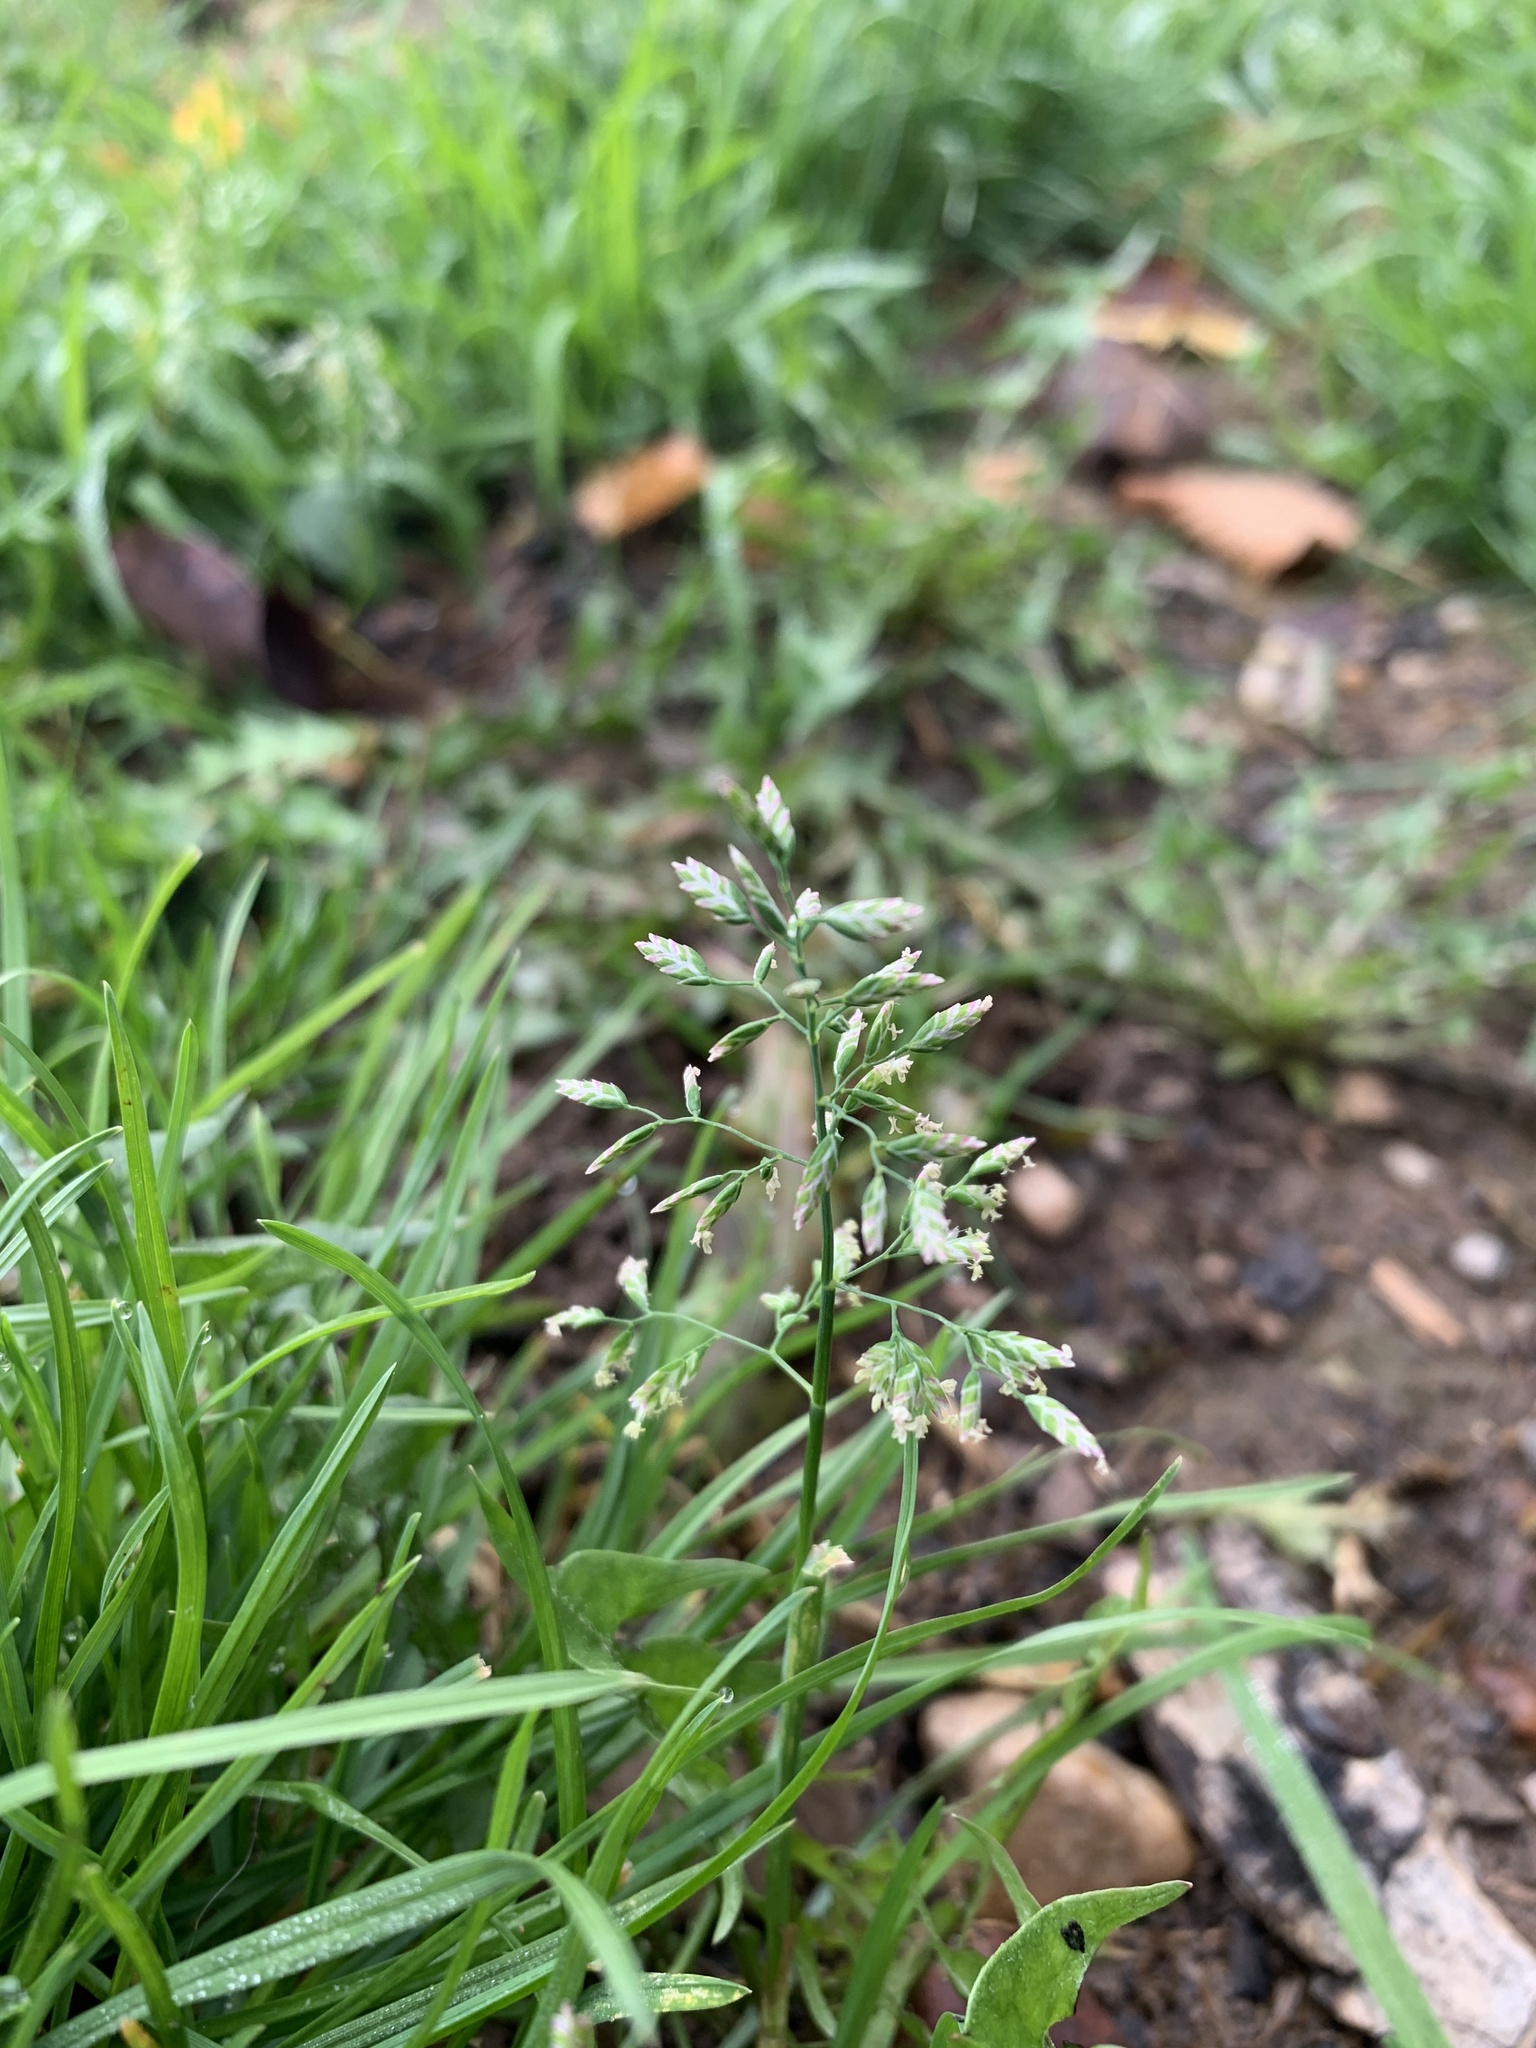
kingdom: Plantae
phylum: Tracheophyta
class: Liliopsida
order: Poales
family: Poaceae
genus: Poa
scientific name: Poa annua
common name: Annual bluegrass
